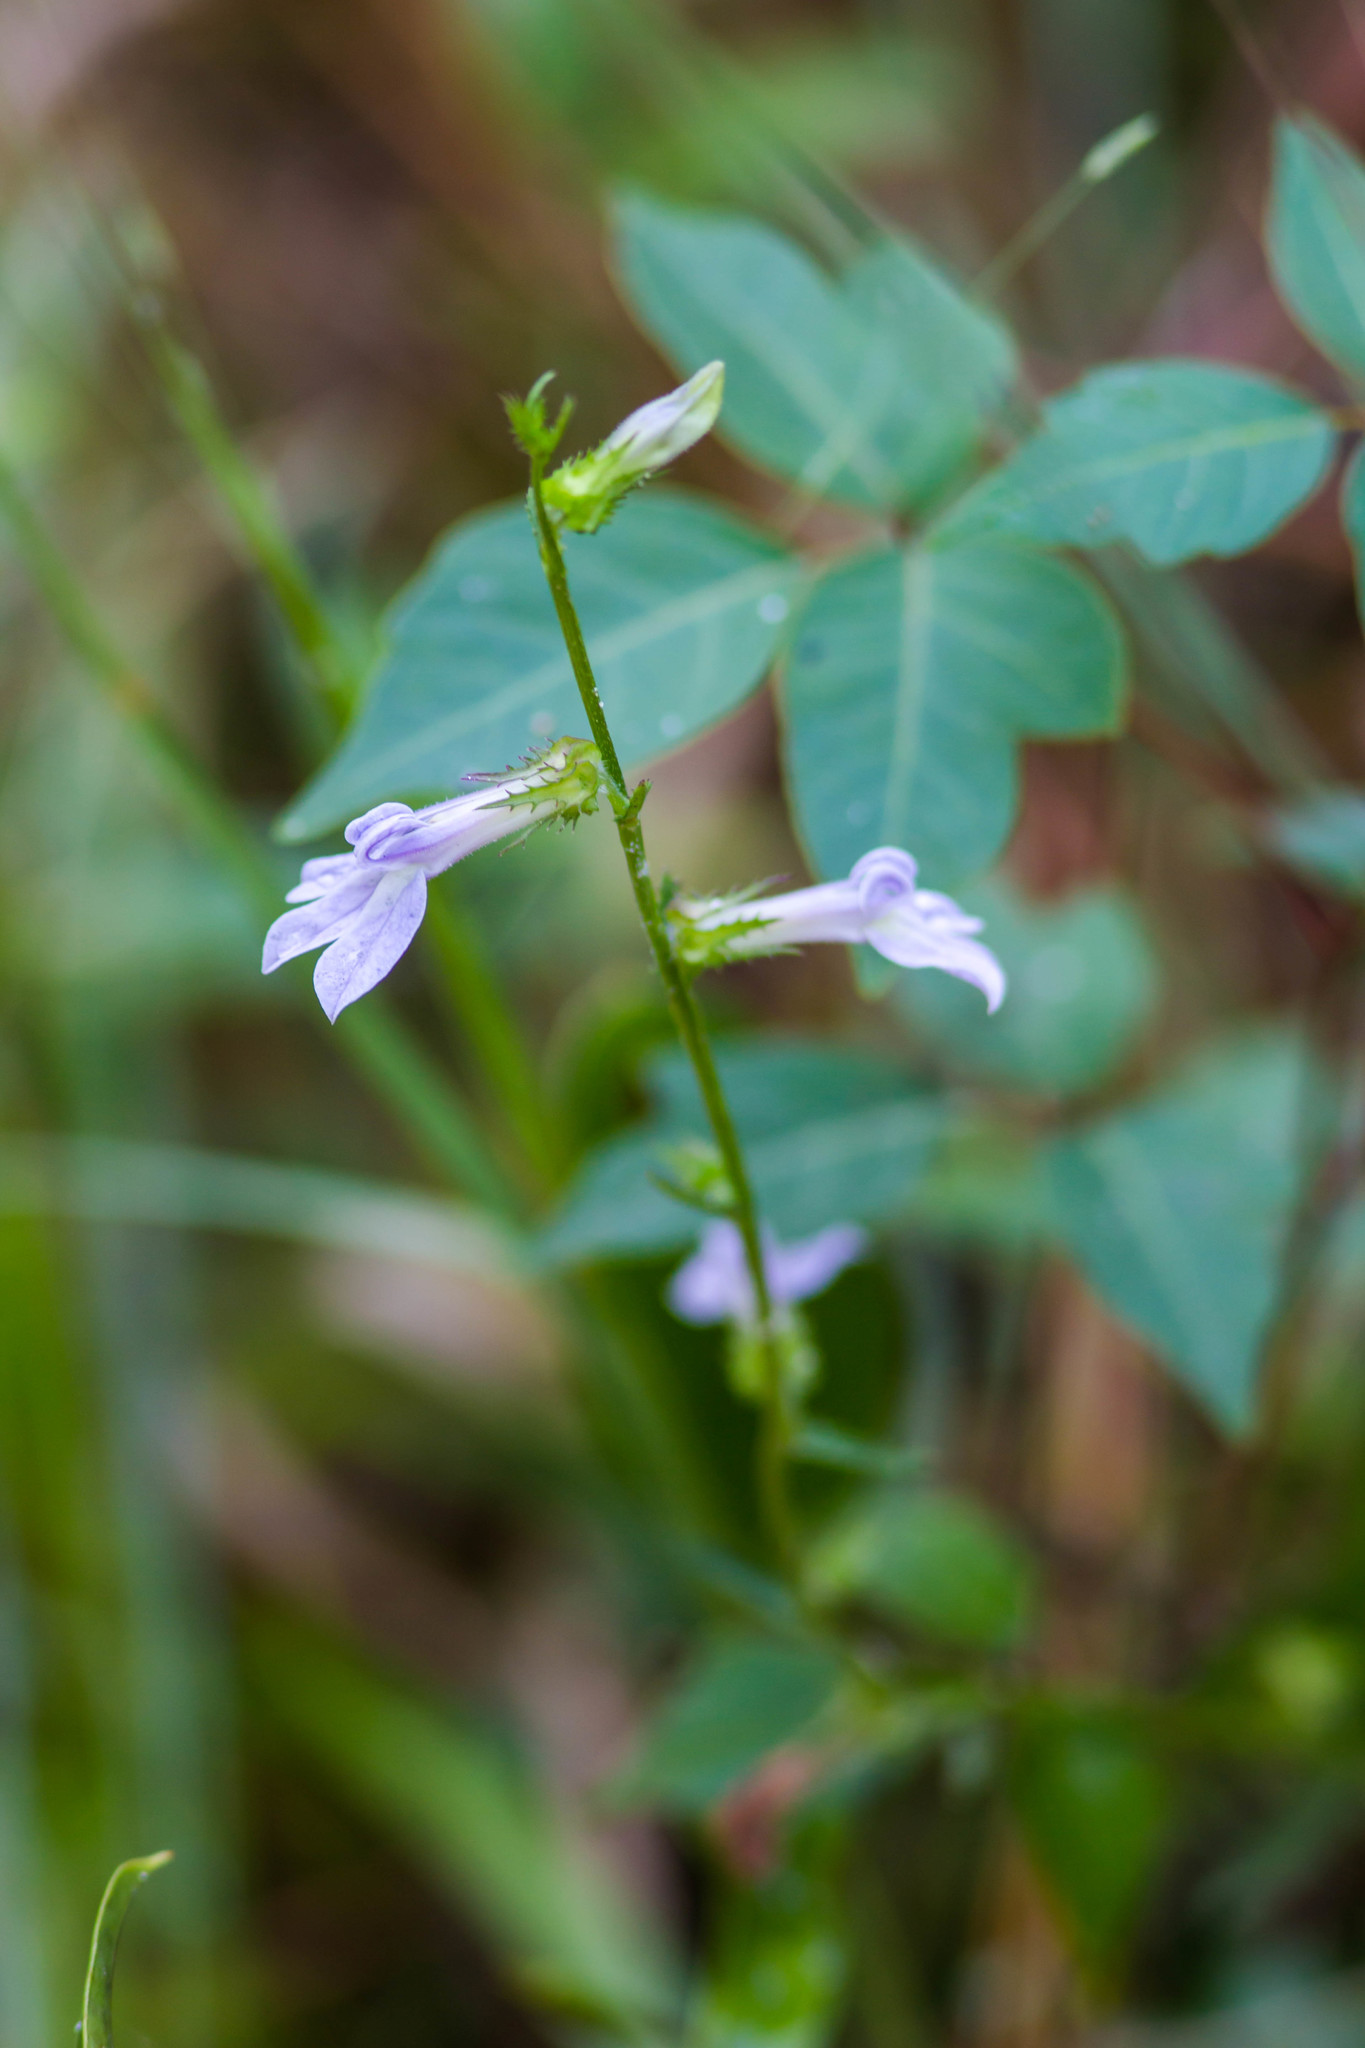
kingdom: Plantae
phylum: Tracheophyta
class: Magnoliopsida
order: Asterales
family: Campanulaceae
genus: Lobelia
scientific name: Lobelia brevifolia
